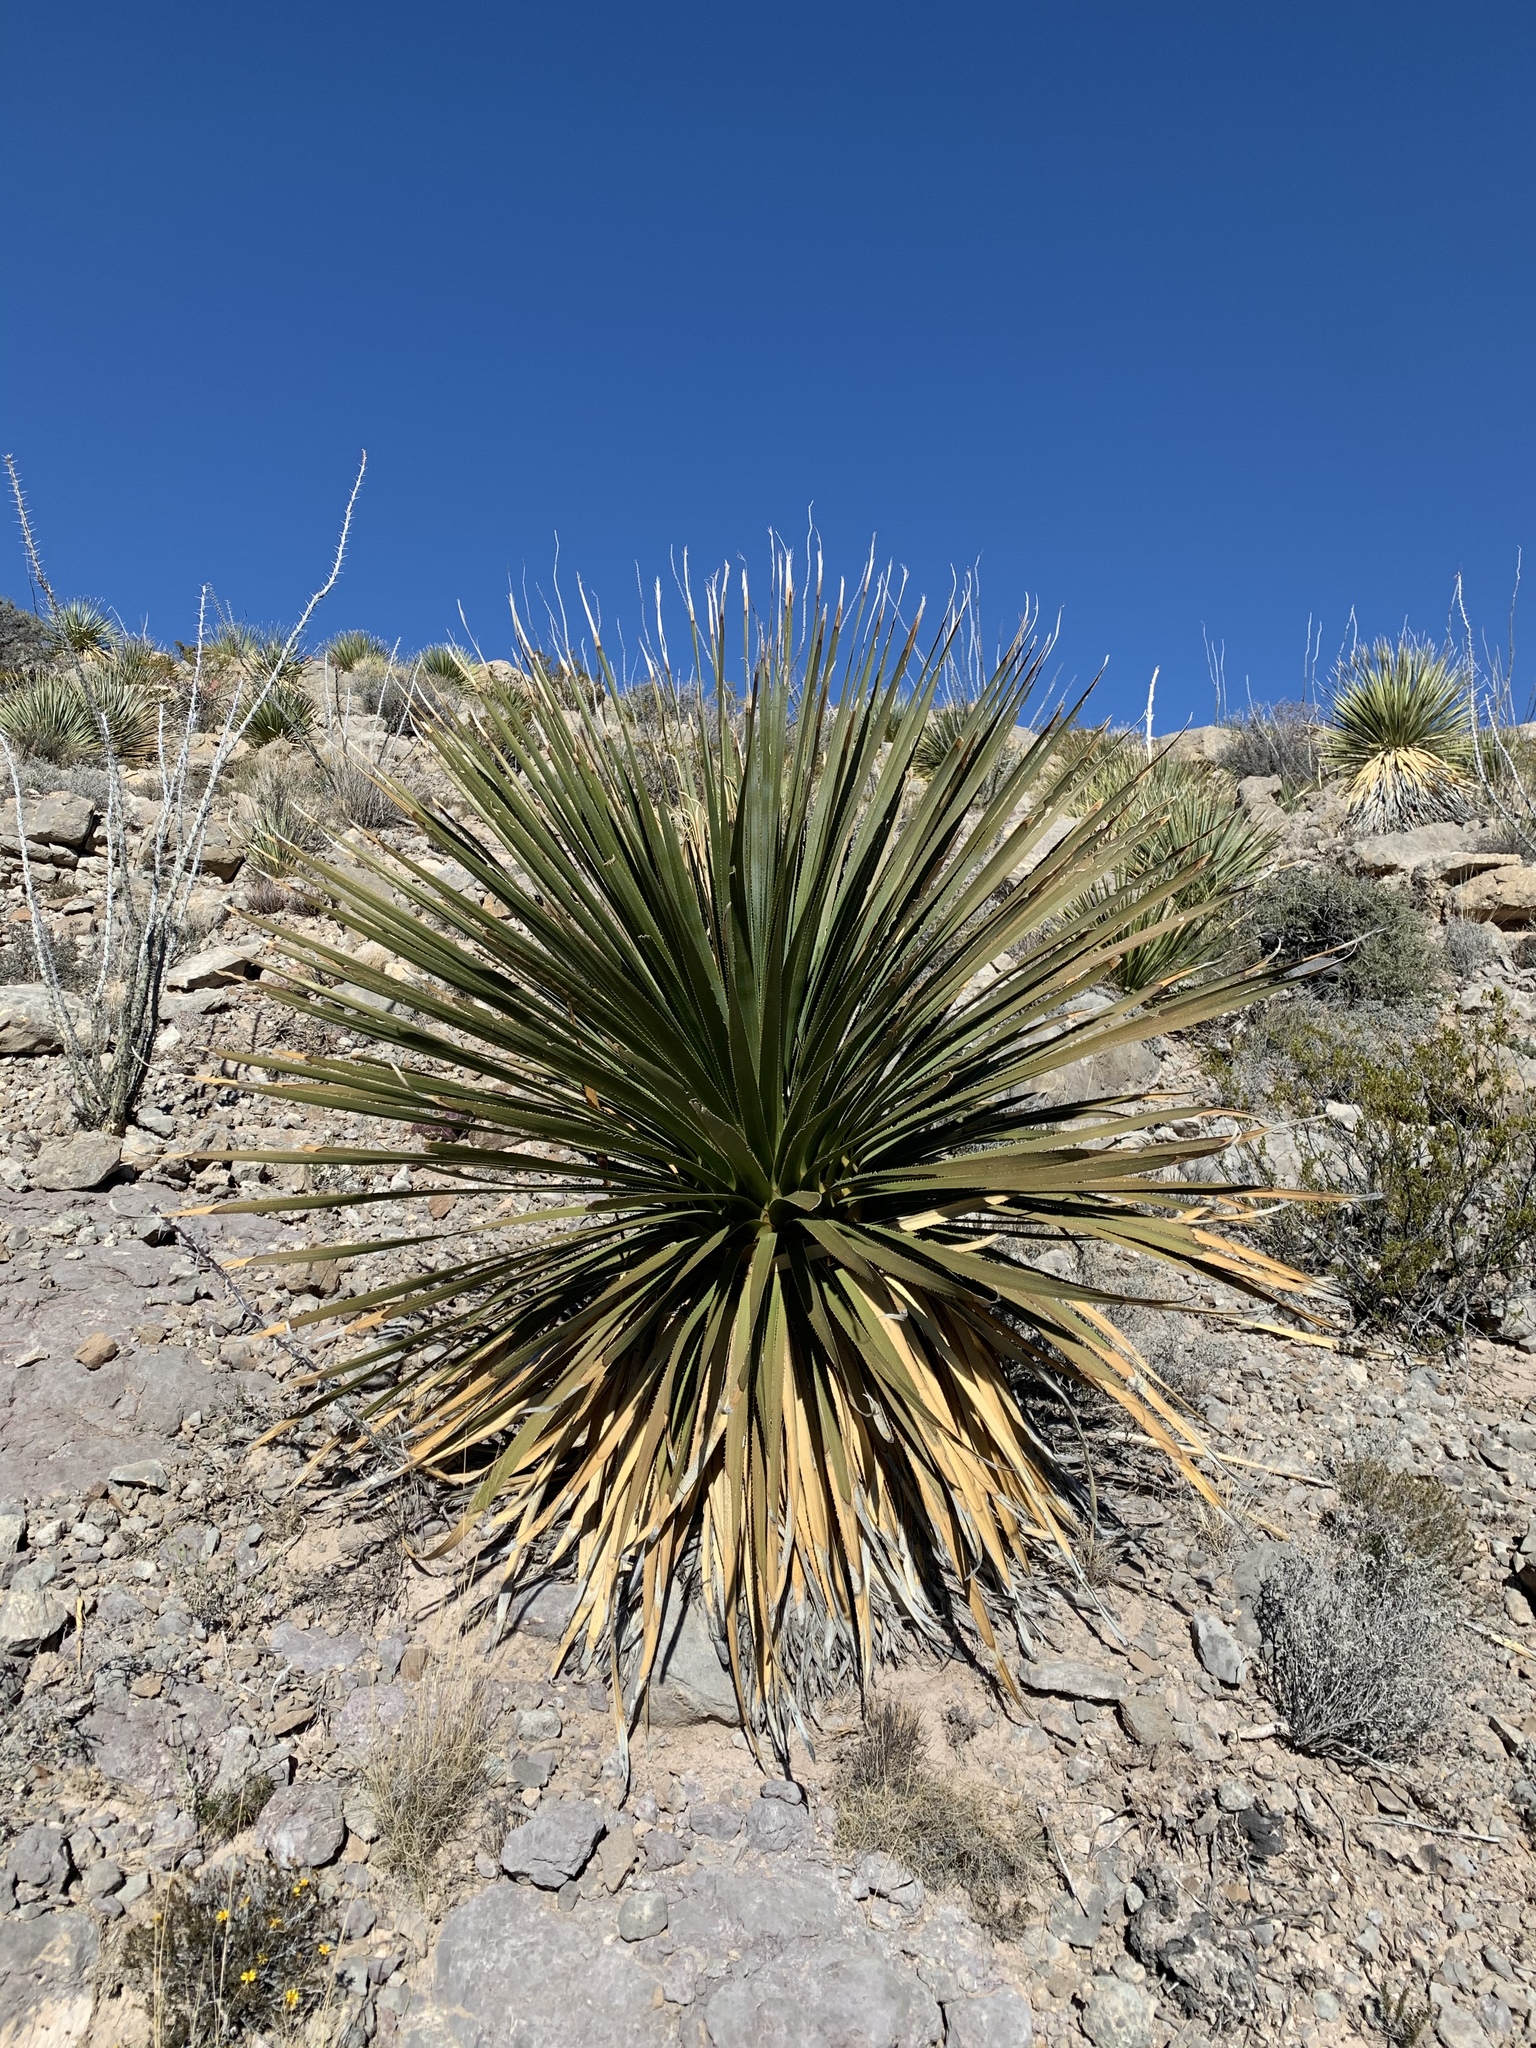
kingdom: Plantae
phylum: Tracheophyta
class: Liliopsida
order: Asparagales
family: Asparagaceae
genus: Dasylirion
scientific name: Dasylirion wheeleri
